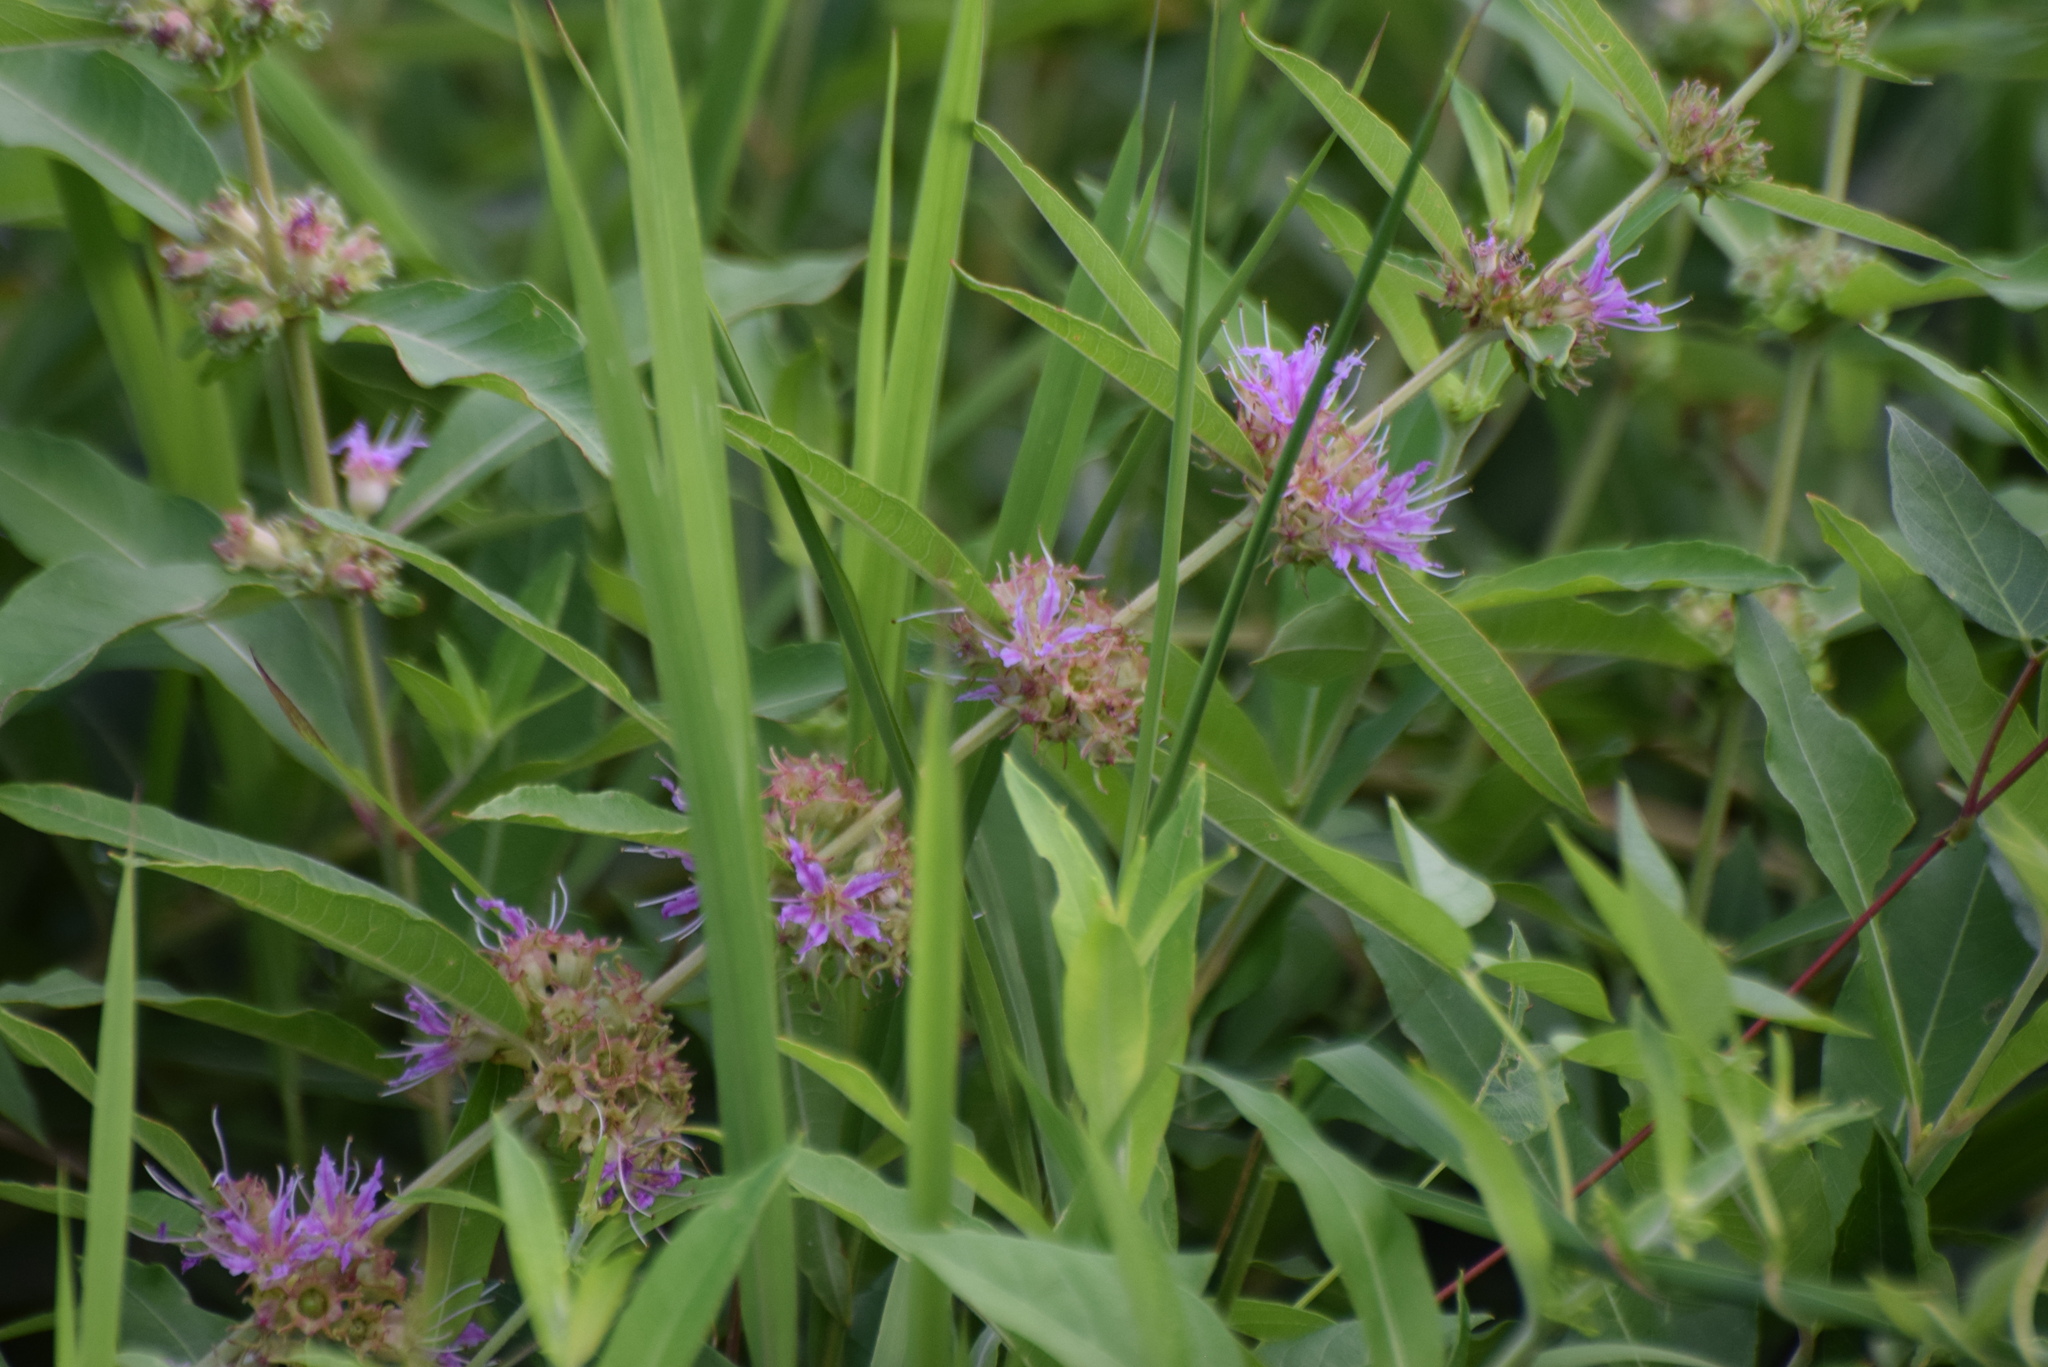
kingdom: Plantae
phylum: Tracheophyta
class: Magnoliopsida
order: Myrtales
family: Lythraceae
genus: Decodon
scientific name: Decodon verticillatus
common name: Hairy swamp loosestrife
